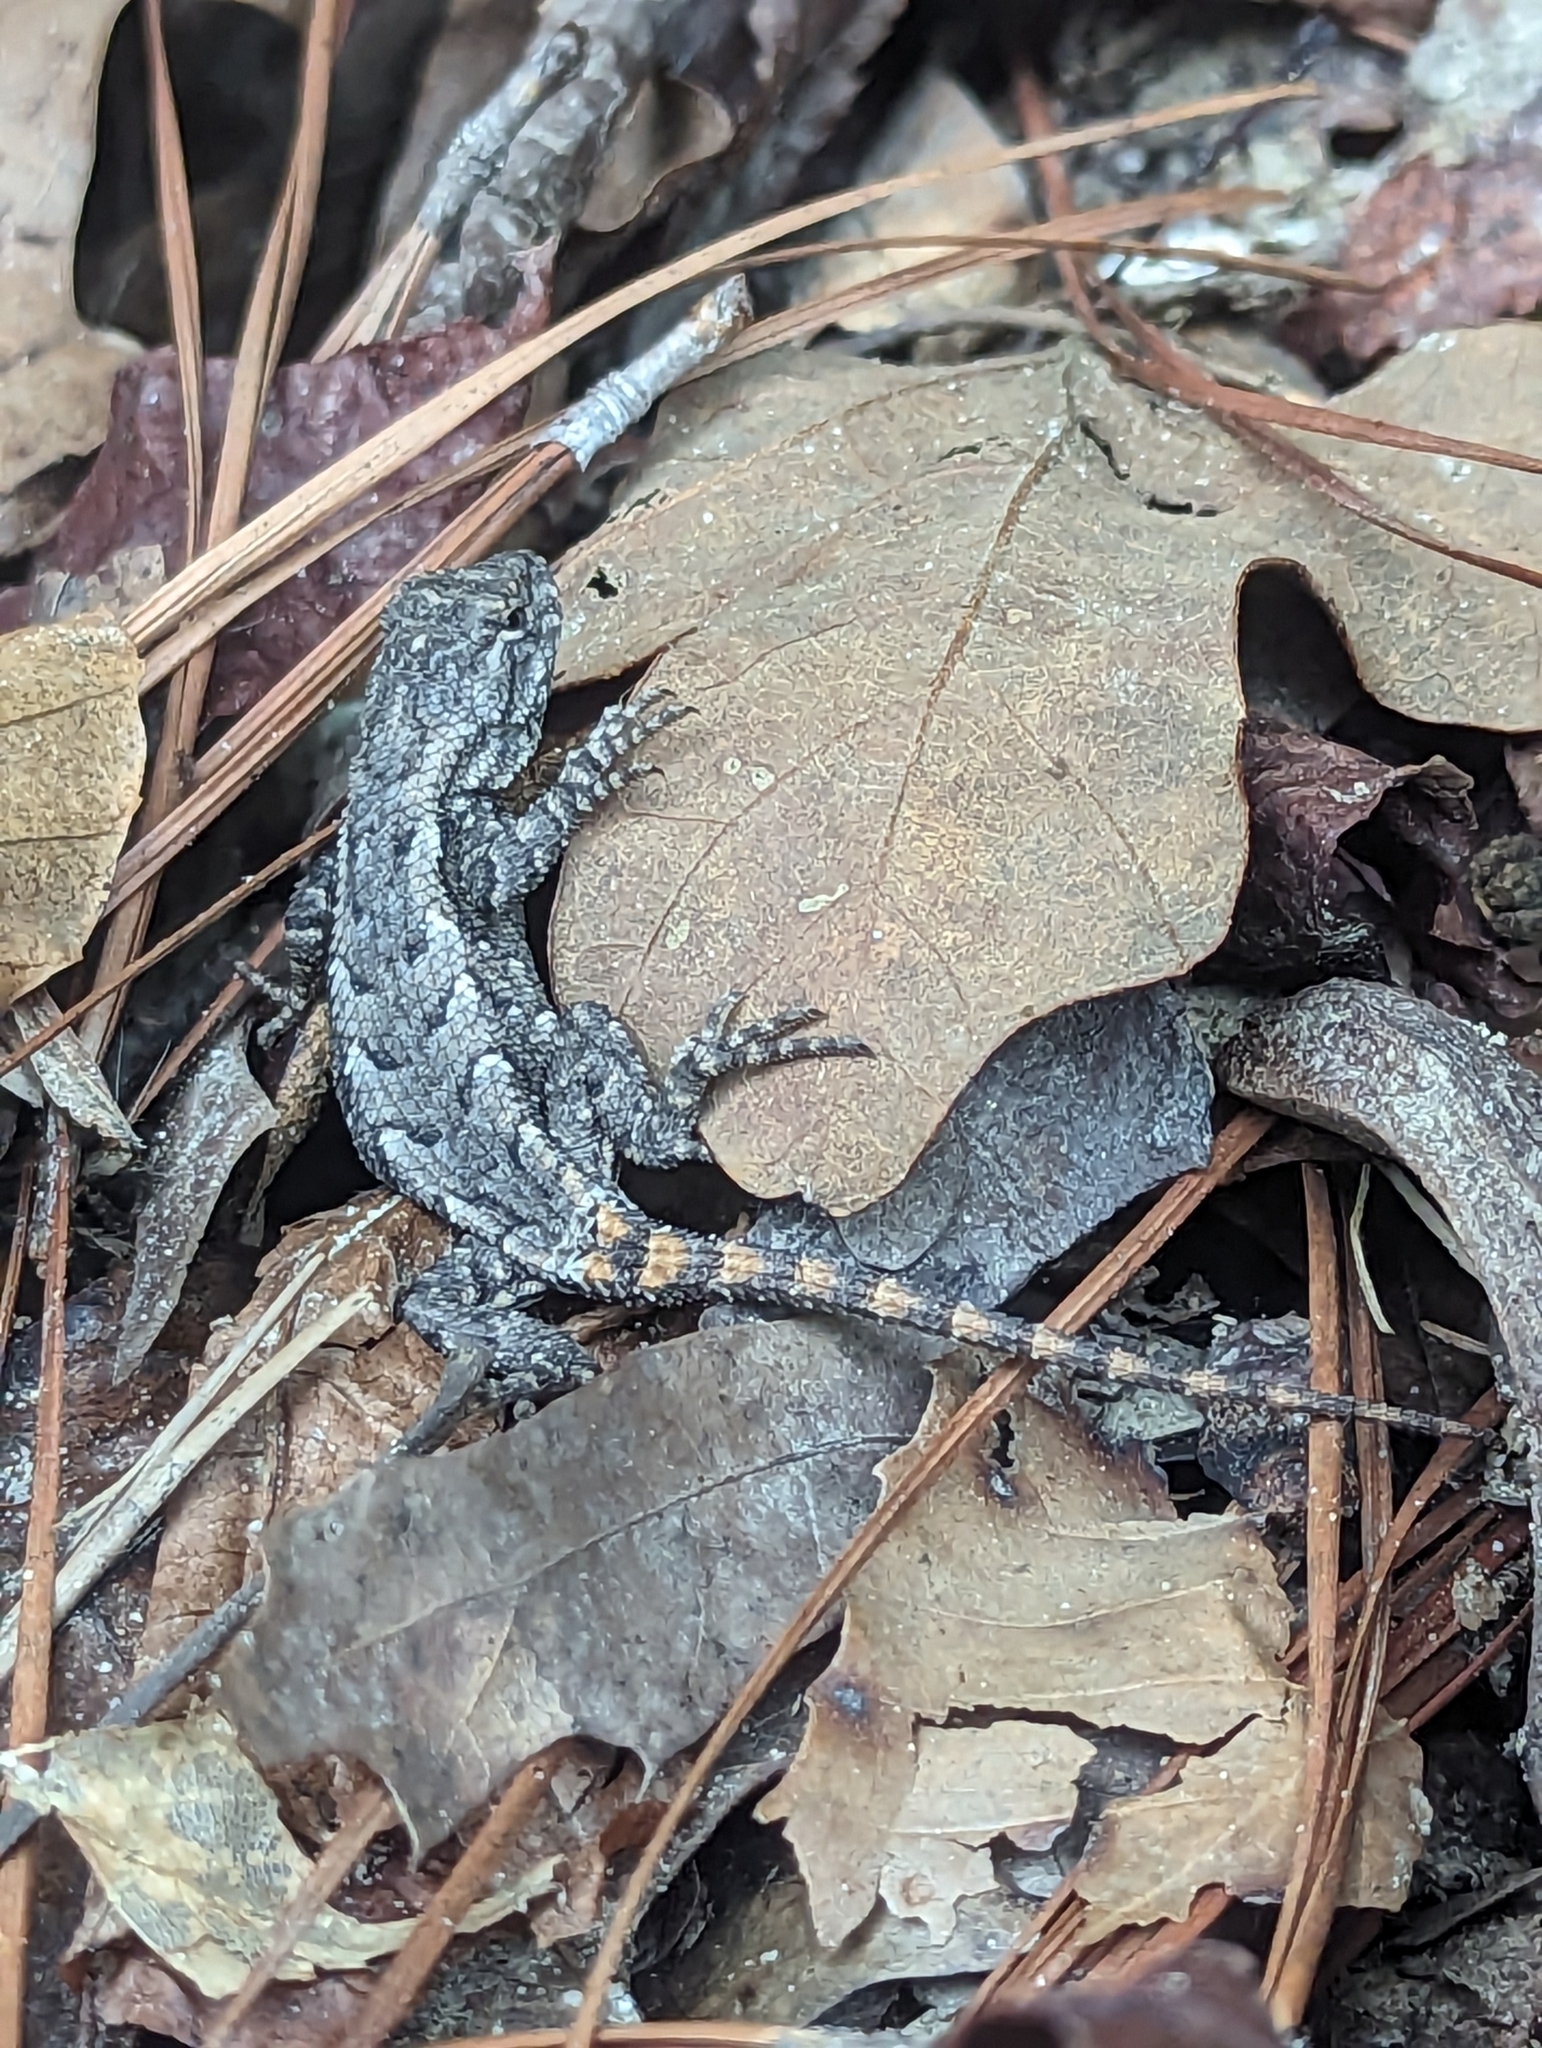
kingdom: Animalia
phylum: Chordata
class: Squamata
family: Phrynosomatidae
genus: Sceloporus
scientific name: Sceloporus undulatus
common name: Eastern fence lizard
